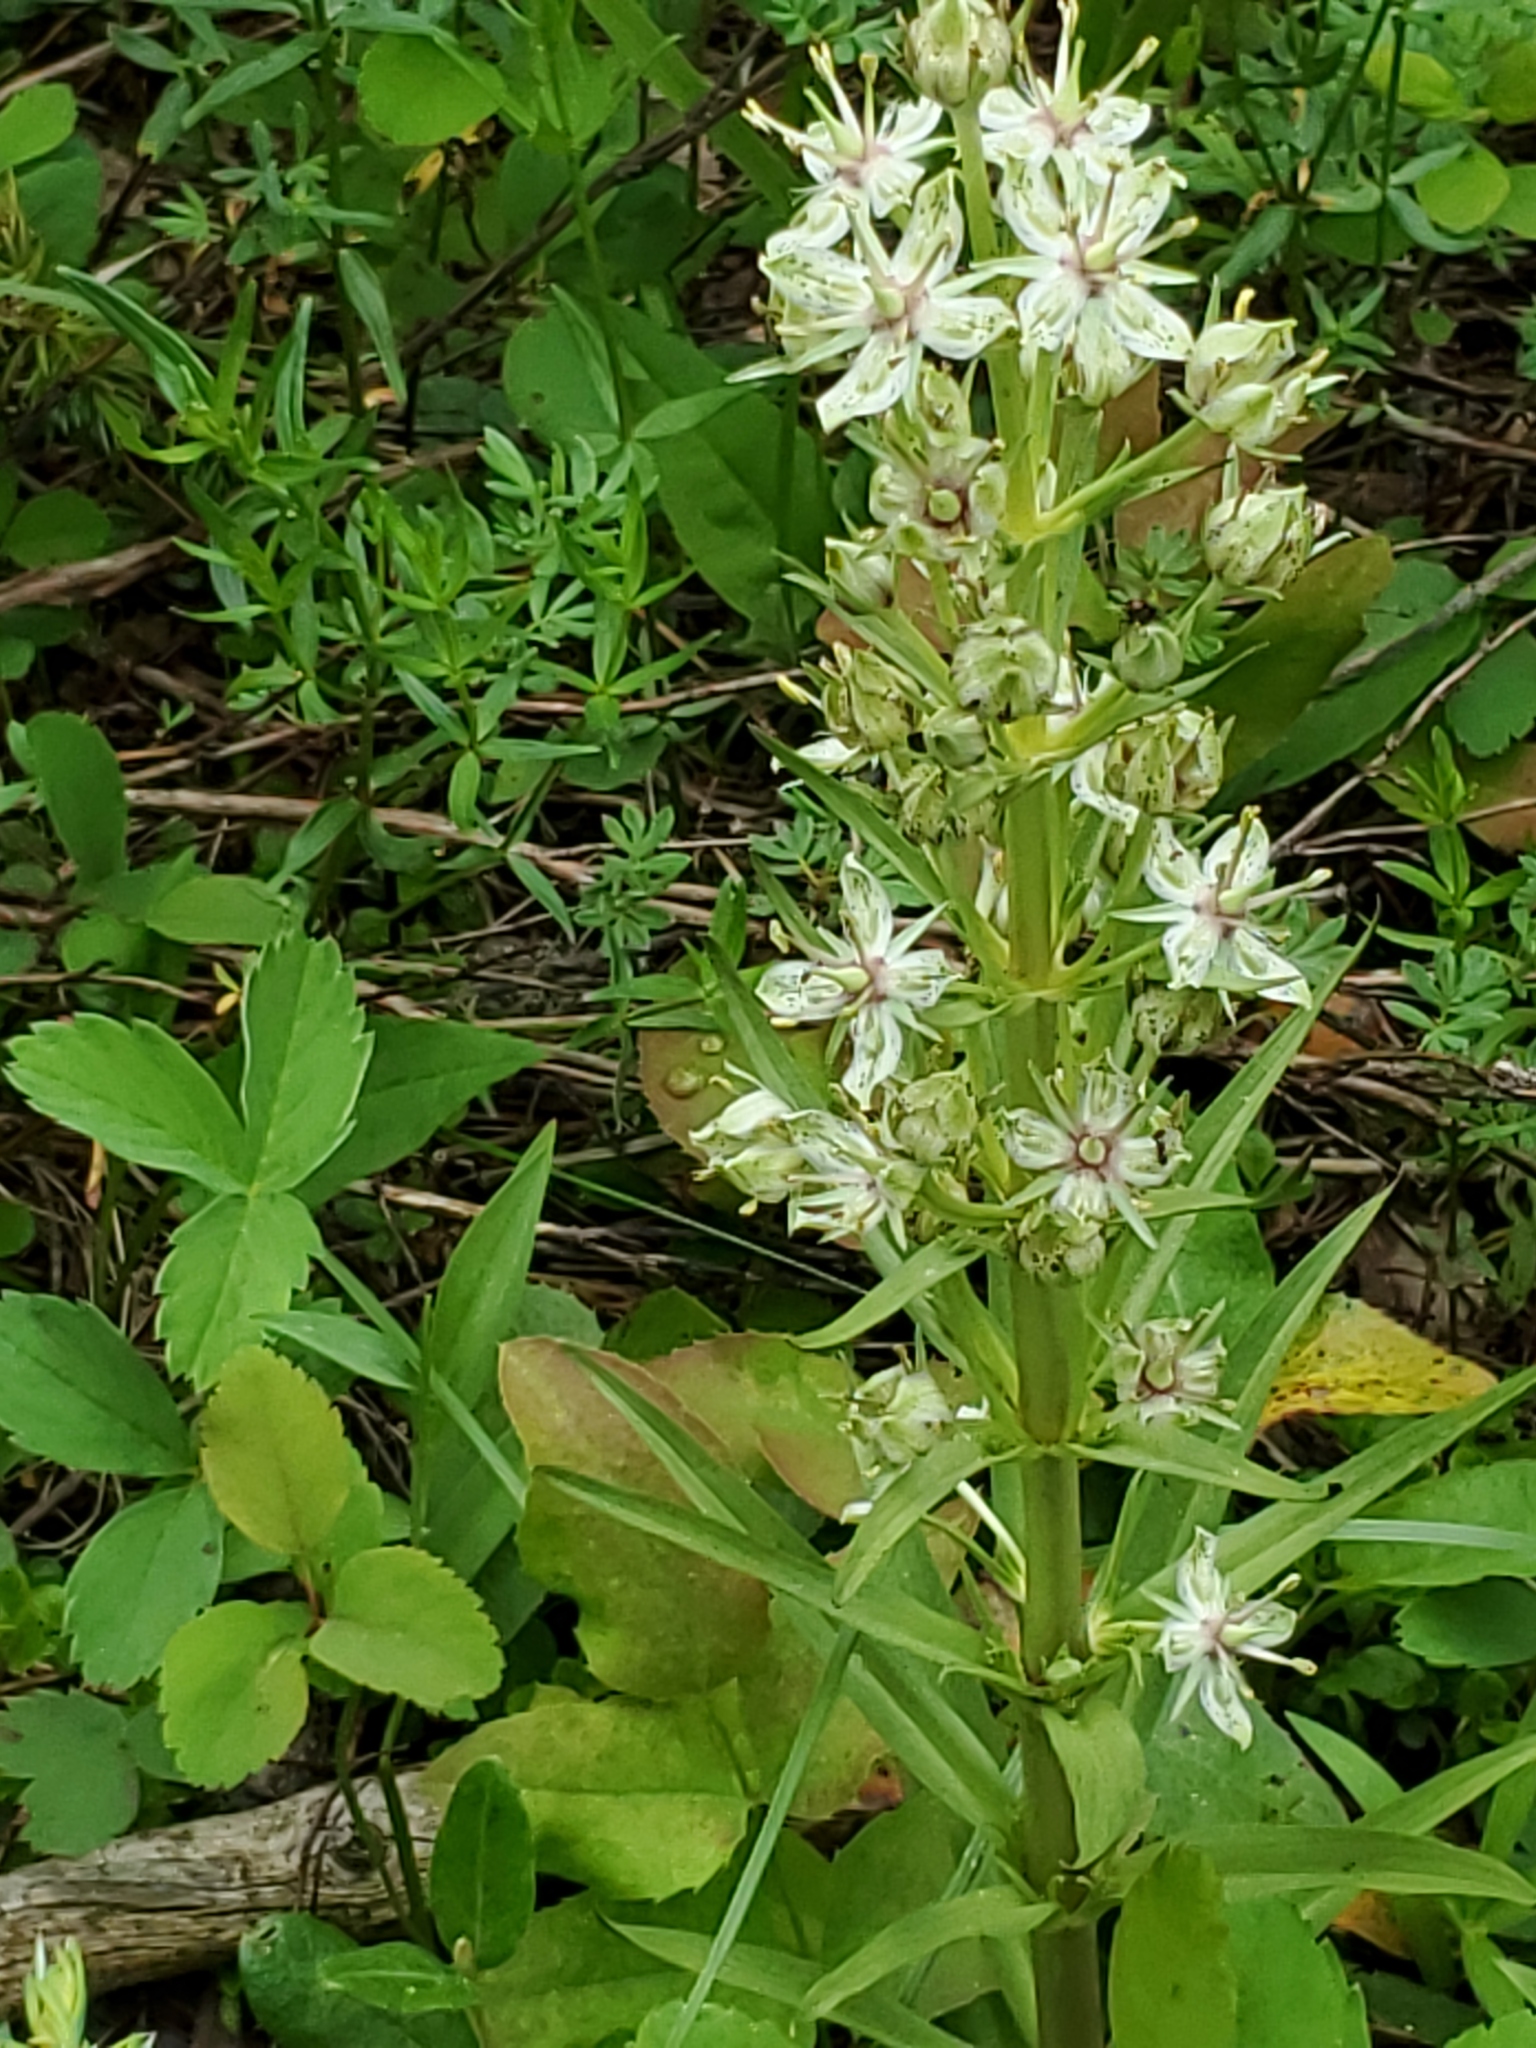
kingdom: Plantae
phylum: Tracheophyta
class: Magnoliopsida
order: Gentianales
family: Gentianaceae
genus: Frasera
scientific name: Frasera speciosa
